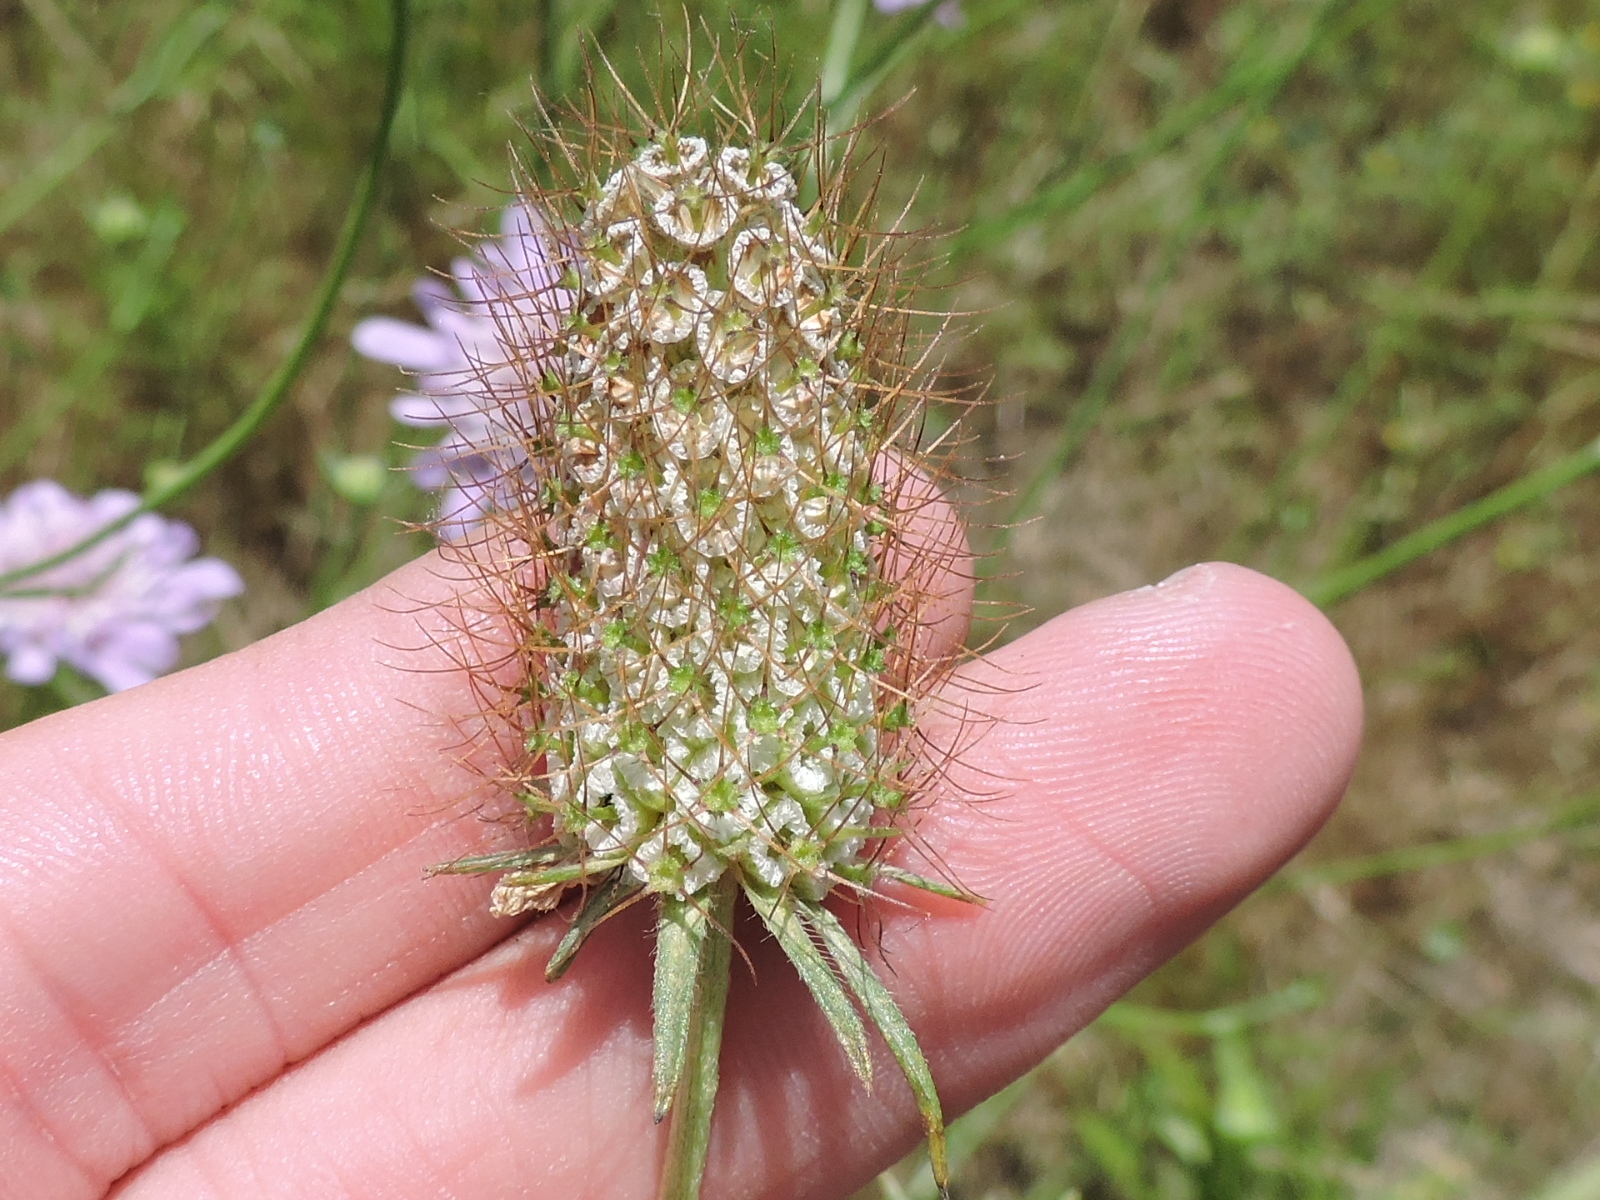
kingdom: Plantae
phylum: Tracheophyta
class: Magnoliopsida
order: Dipsacales
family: Caprifoliaceae
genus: Sixalix
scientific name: Sixalix atropurpurea
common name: Sweet scabious
